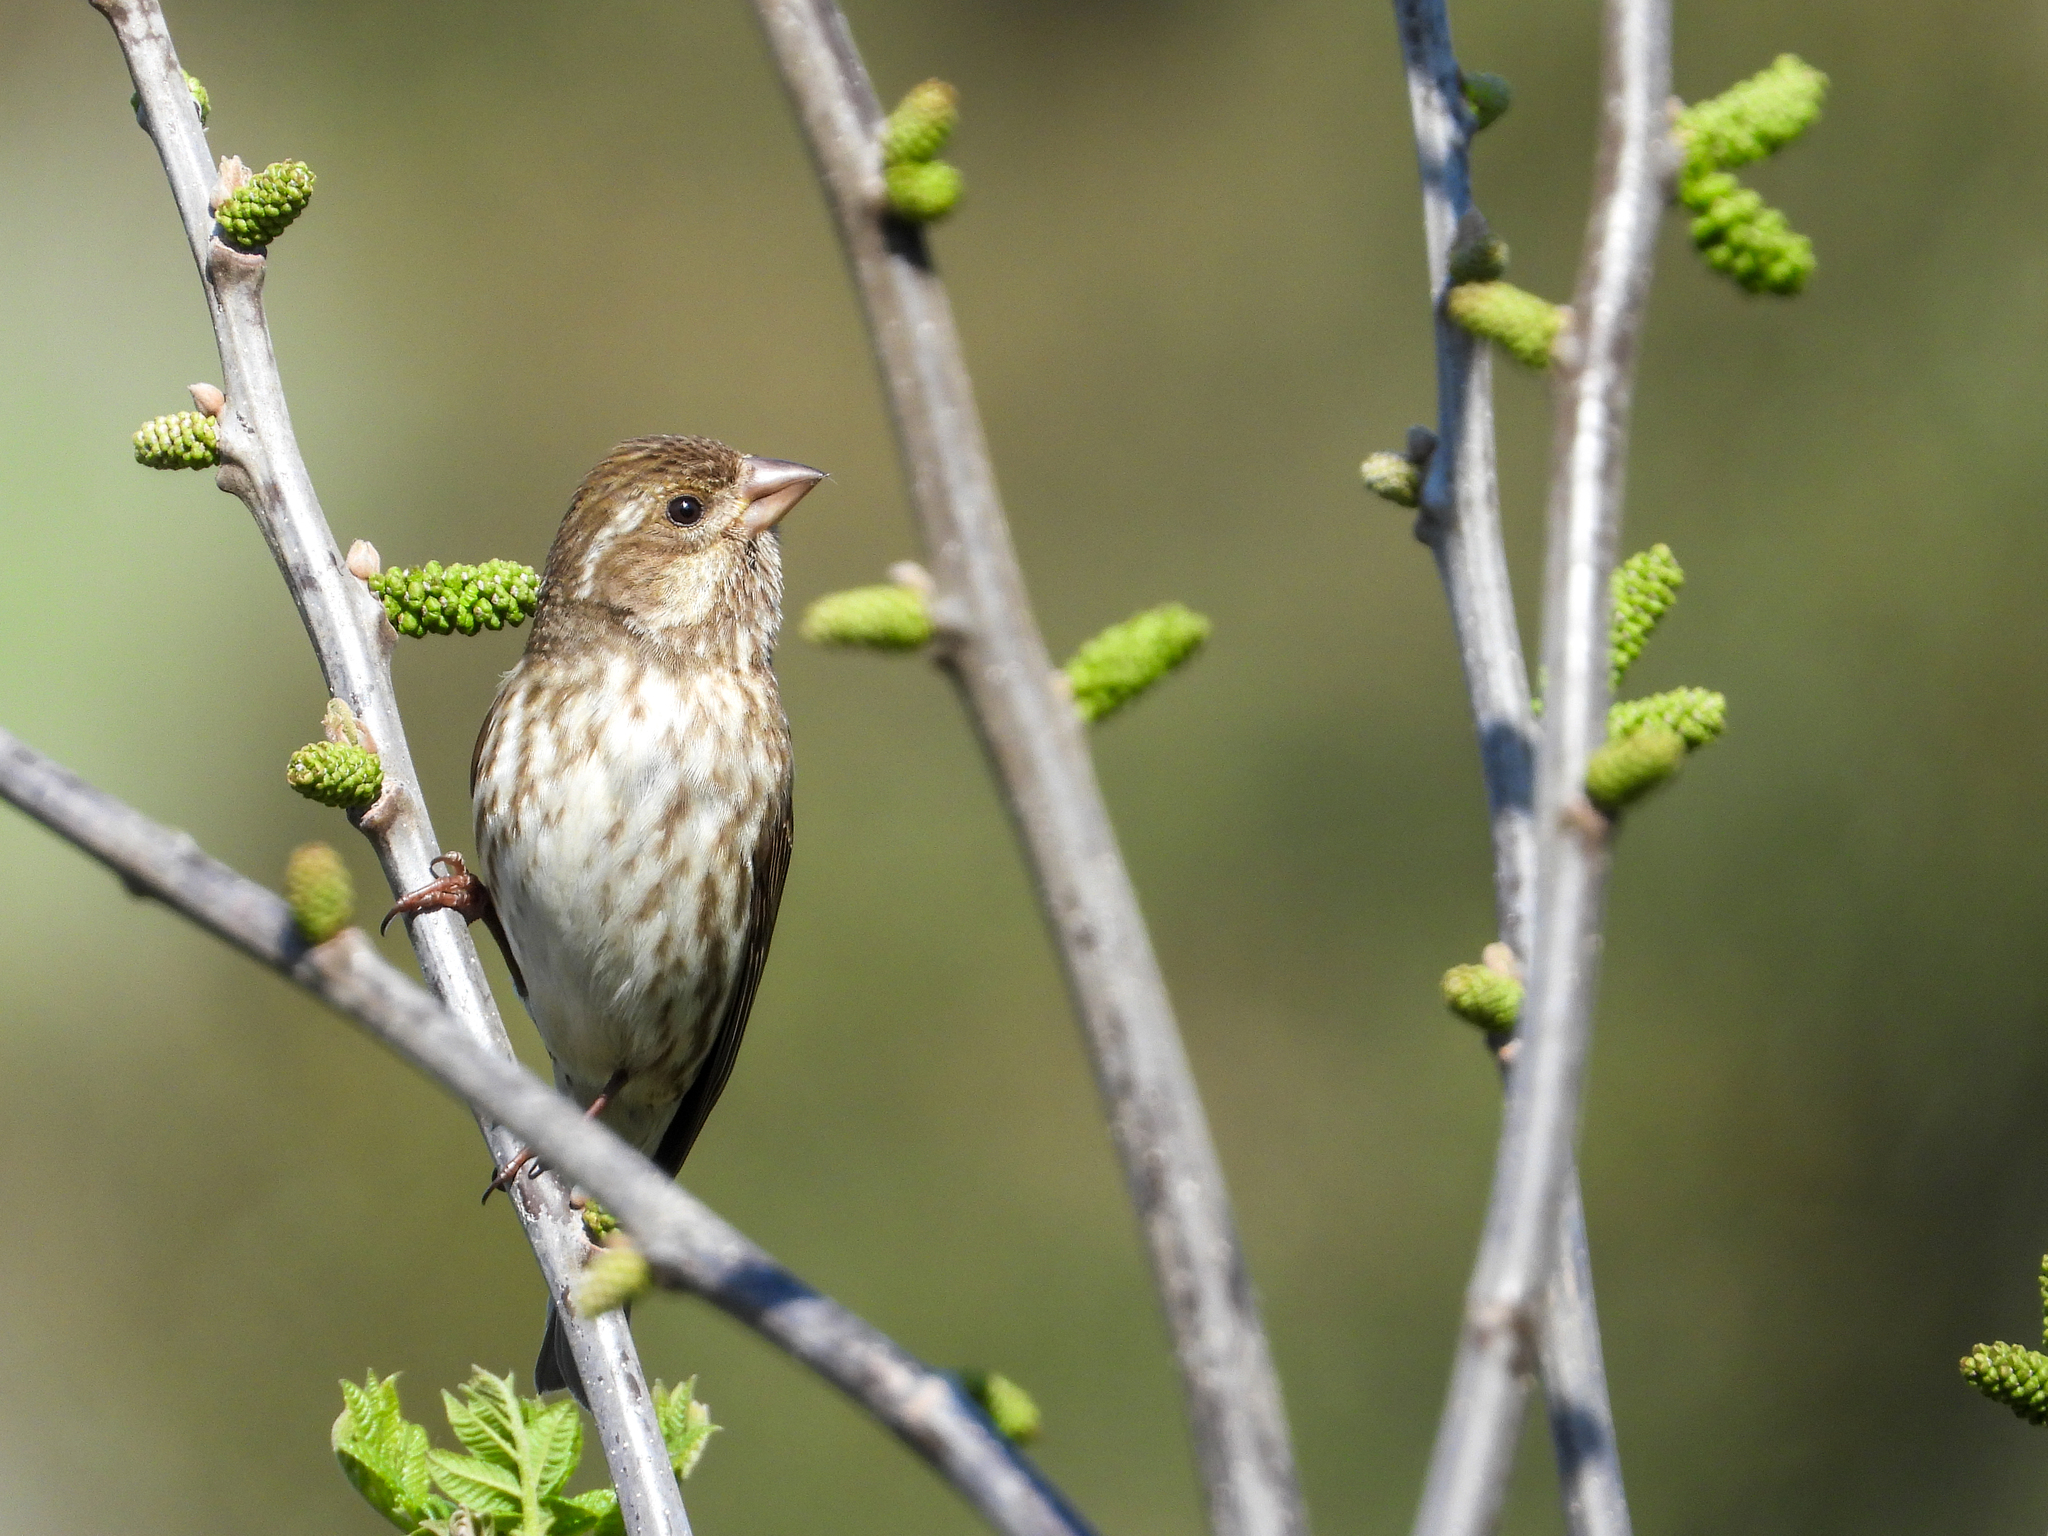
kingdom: Animalia
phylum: Chordata
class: Aves
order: Passeriformes
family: Fringillidae
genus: Haemorhous
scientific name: Haemorhous purpureus
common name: Purple finch
